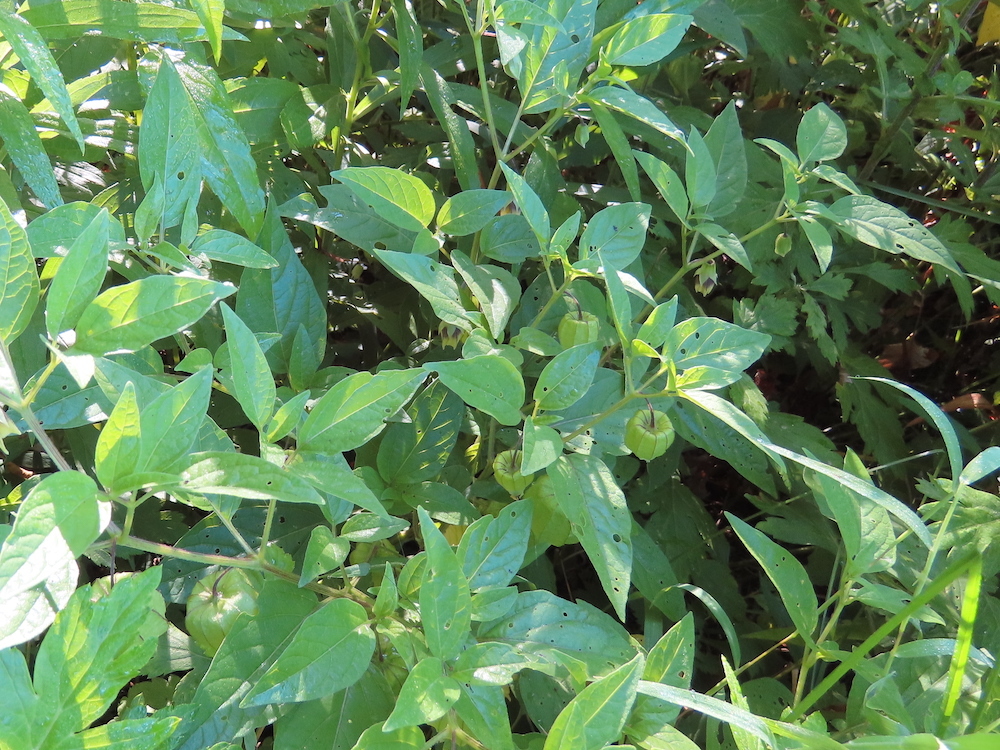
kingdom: Plantae
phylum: Tracheophyta
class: Magnoliopsida
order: Solanales
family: Solanaceae
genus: Physalis
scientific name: Physalis longifolia
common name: Common ground-cherry
